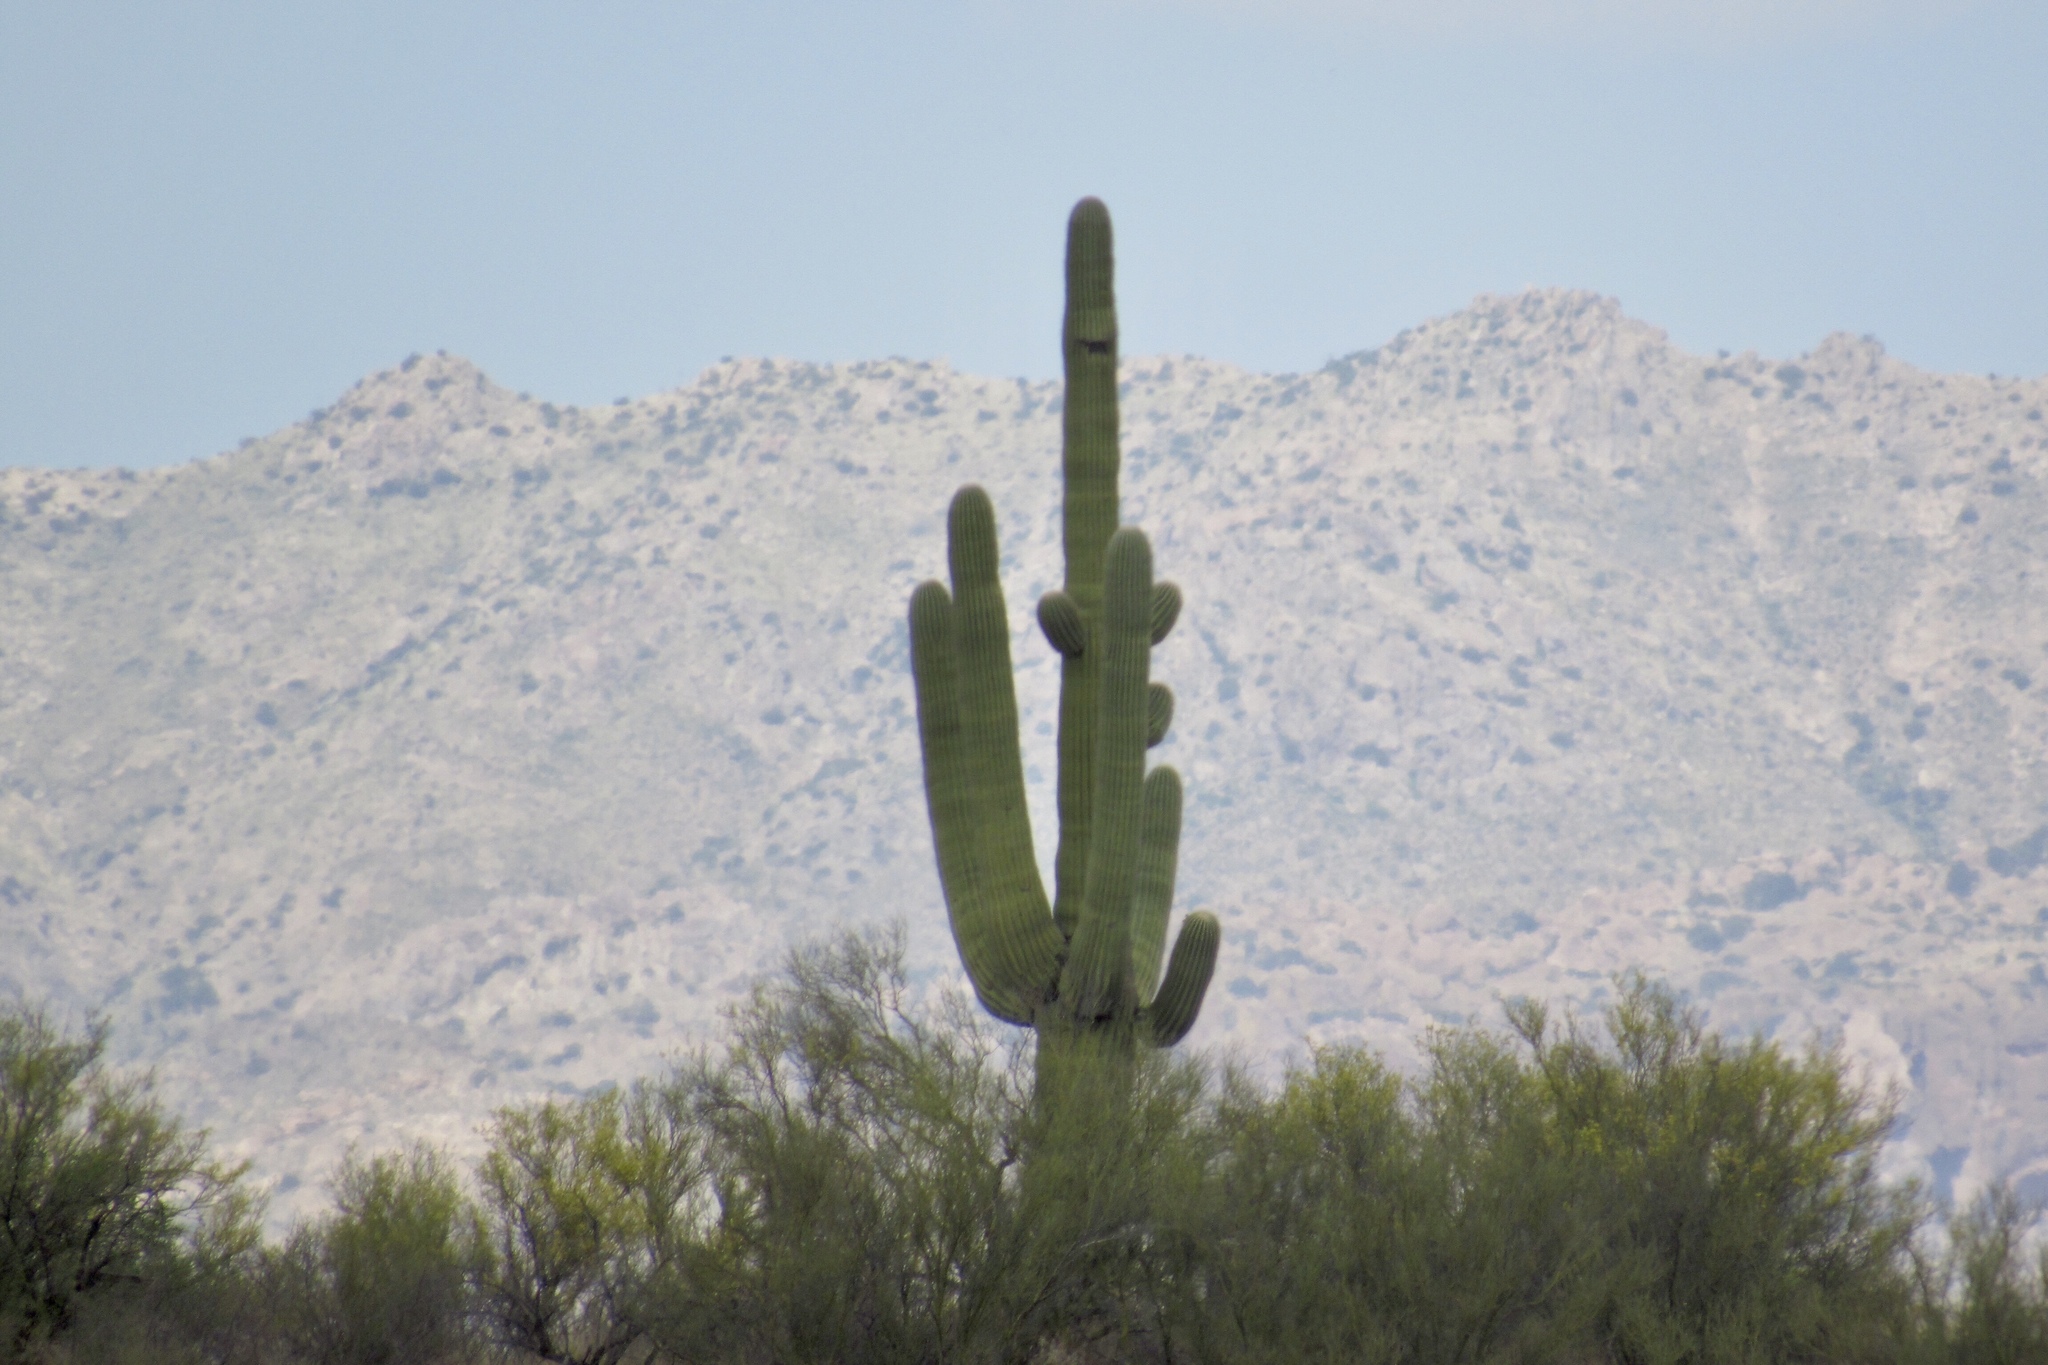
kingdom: Plantae
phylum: Tracheophyta
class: Magnoliopsida
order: Caryophyllales
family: Cactaceae
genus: Carnegiea
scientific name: Carnegiea gigantea
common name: Saguaro
